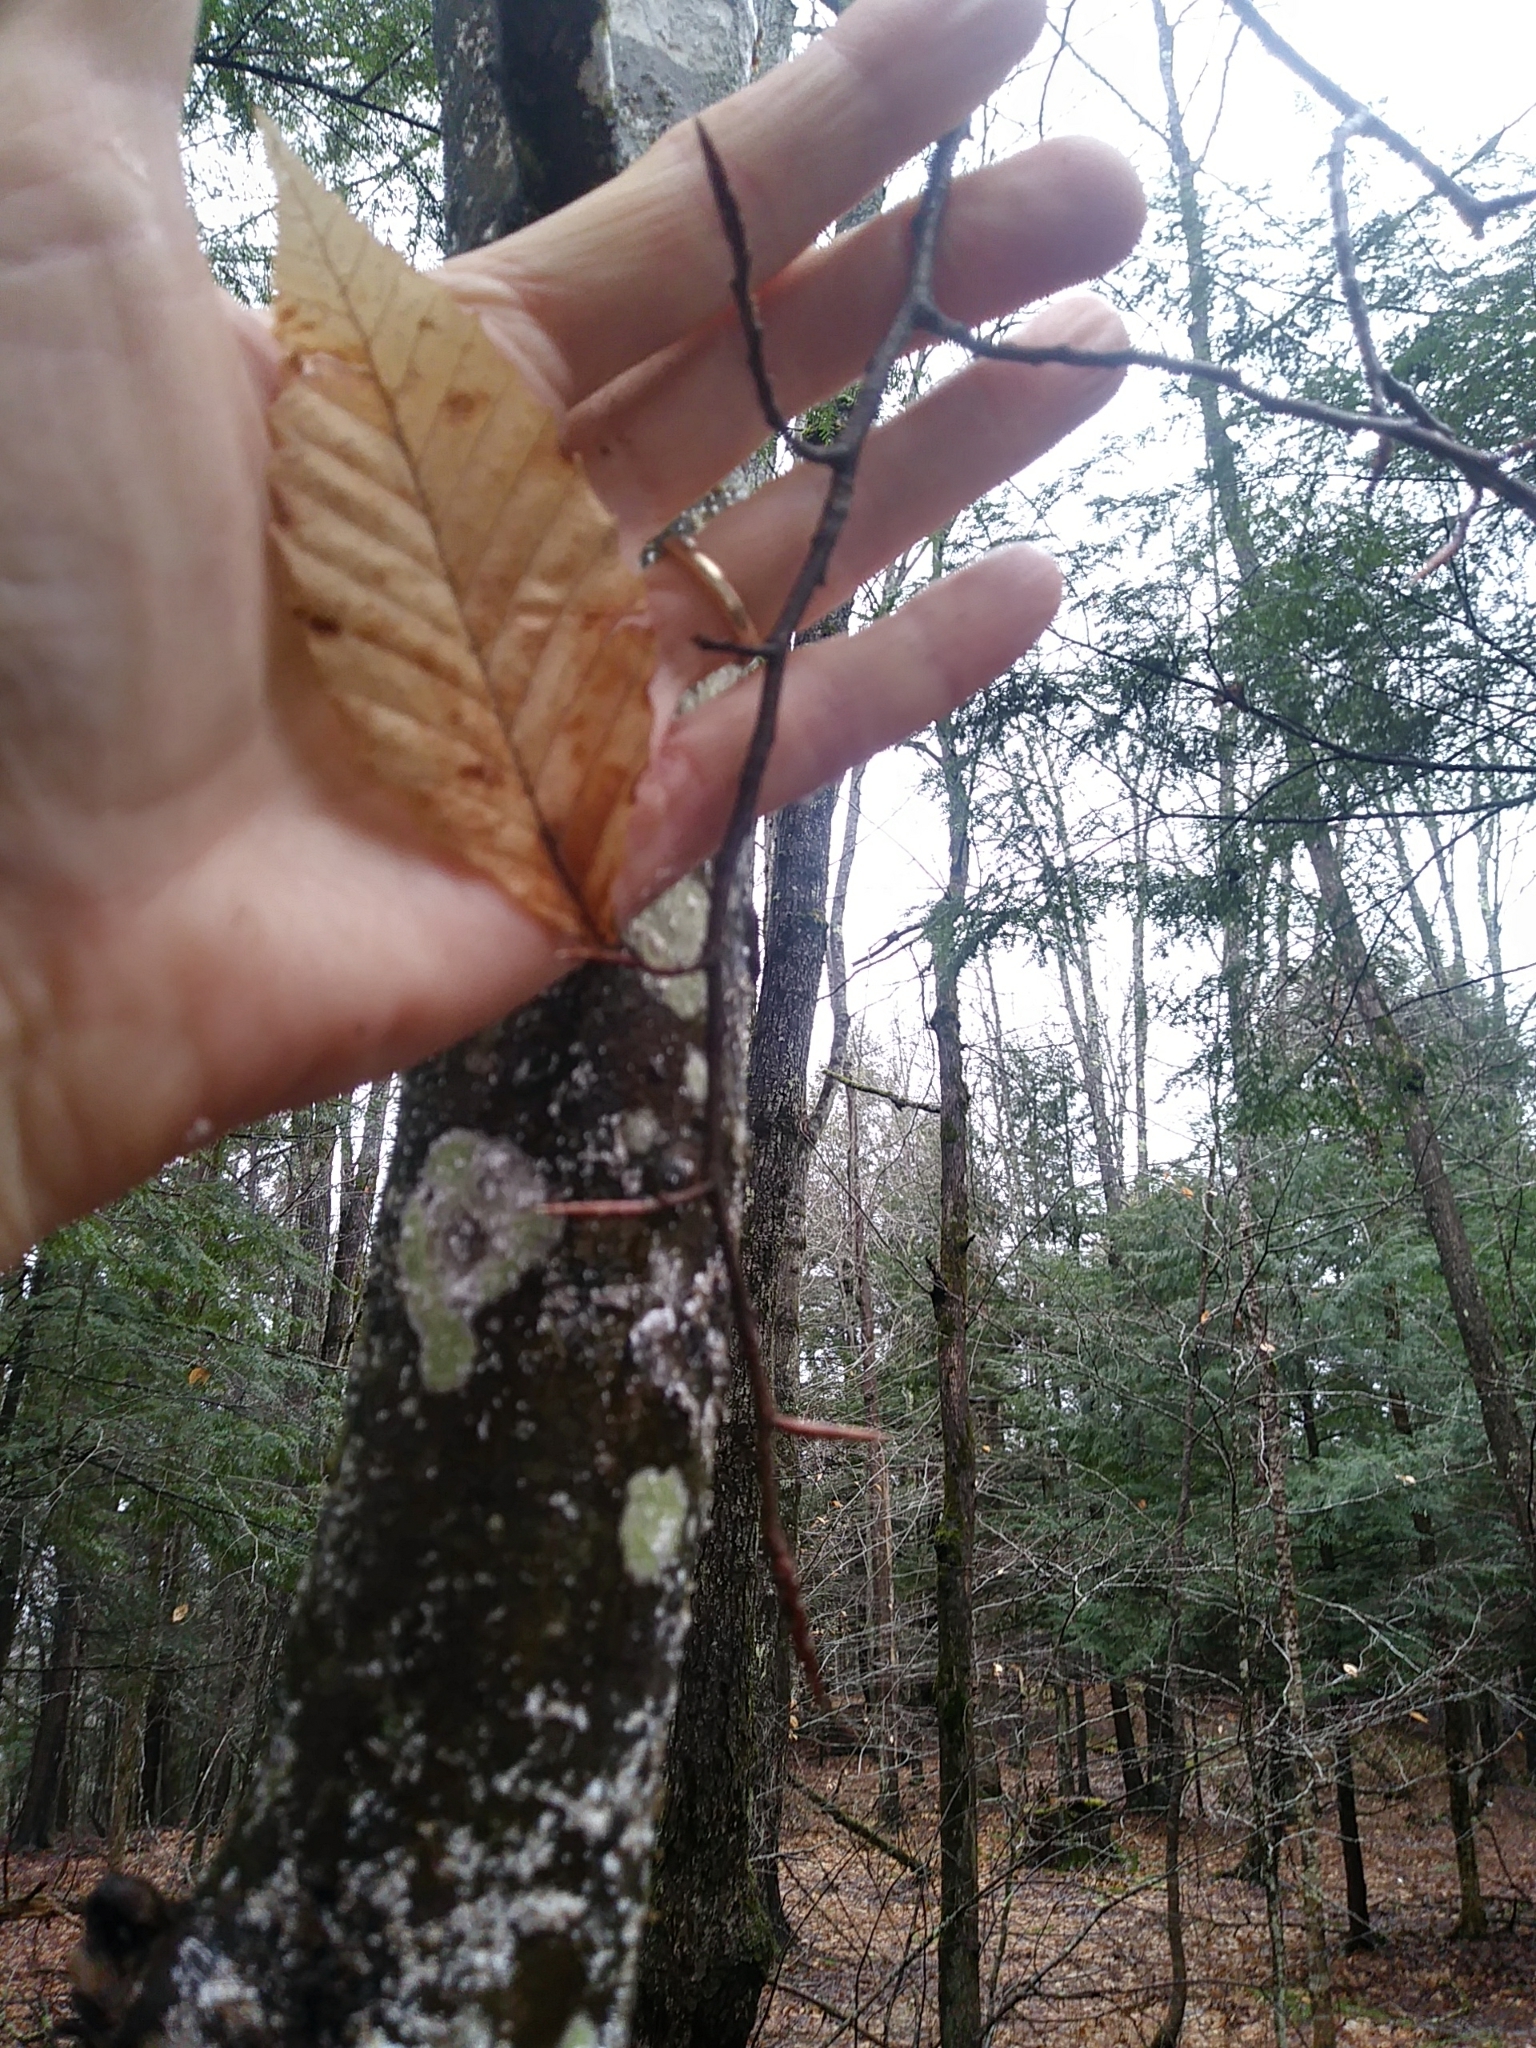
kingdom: Animalia
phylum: Arthropoda
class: Insecta
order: Hemiptera
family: Eriococcidae
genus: Cryptococcus
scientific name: Cryptococcus fagisuga
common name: Beech scale
